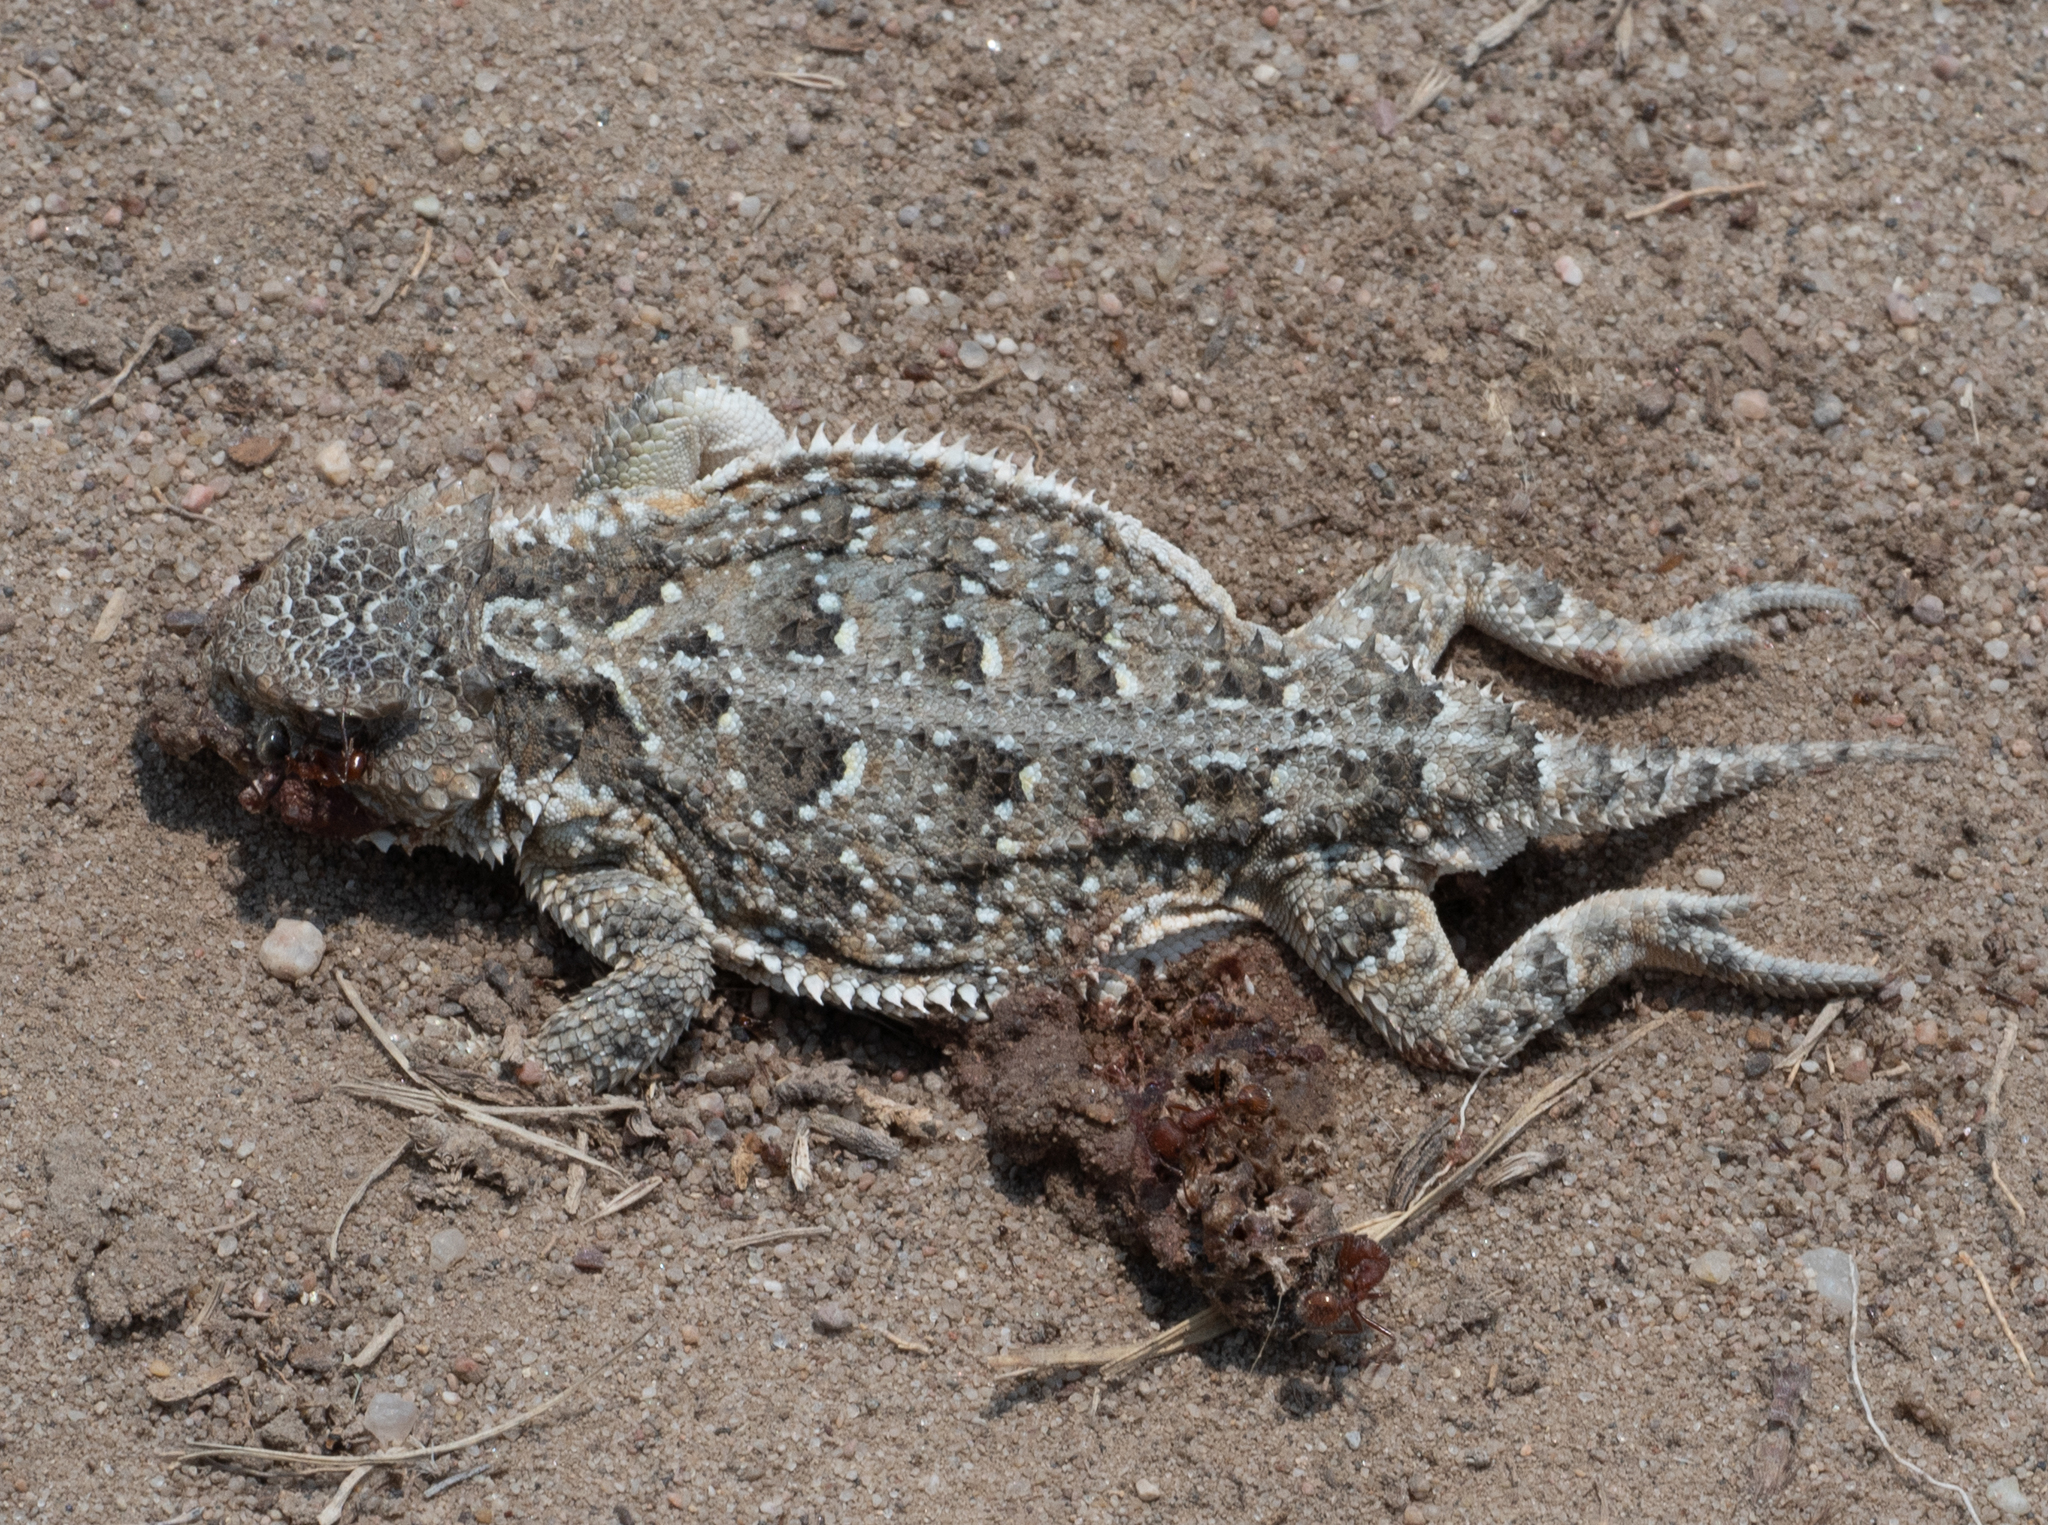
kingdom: Animalia
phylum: Chordata
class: Squamata
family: Phrynosomatidae
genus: Phrynosoma
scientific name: Phrynosoma hernandesi
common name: Greater short-horned lizard
